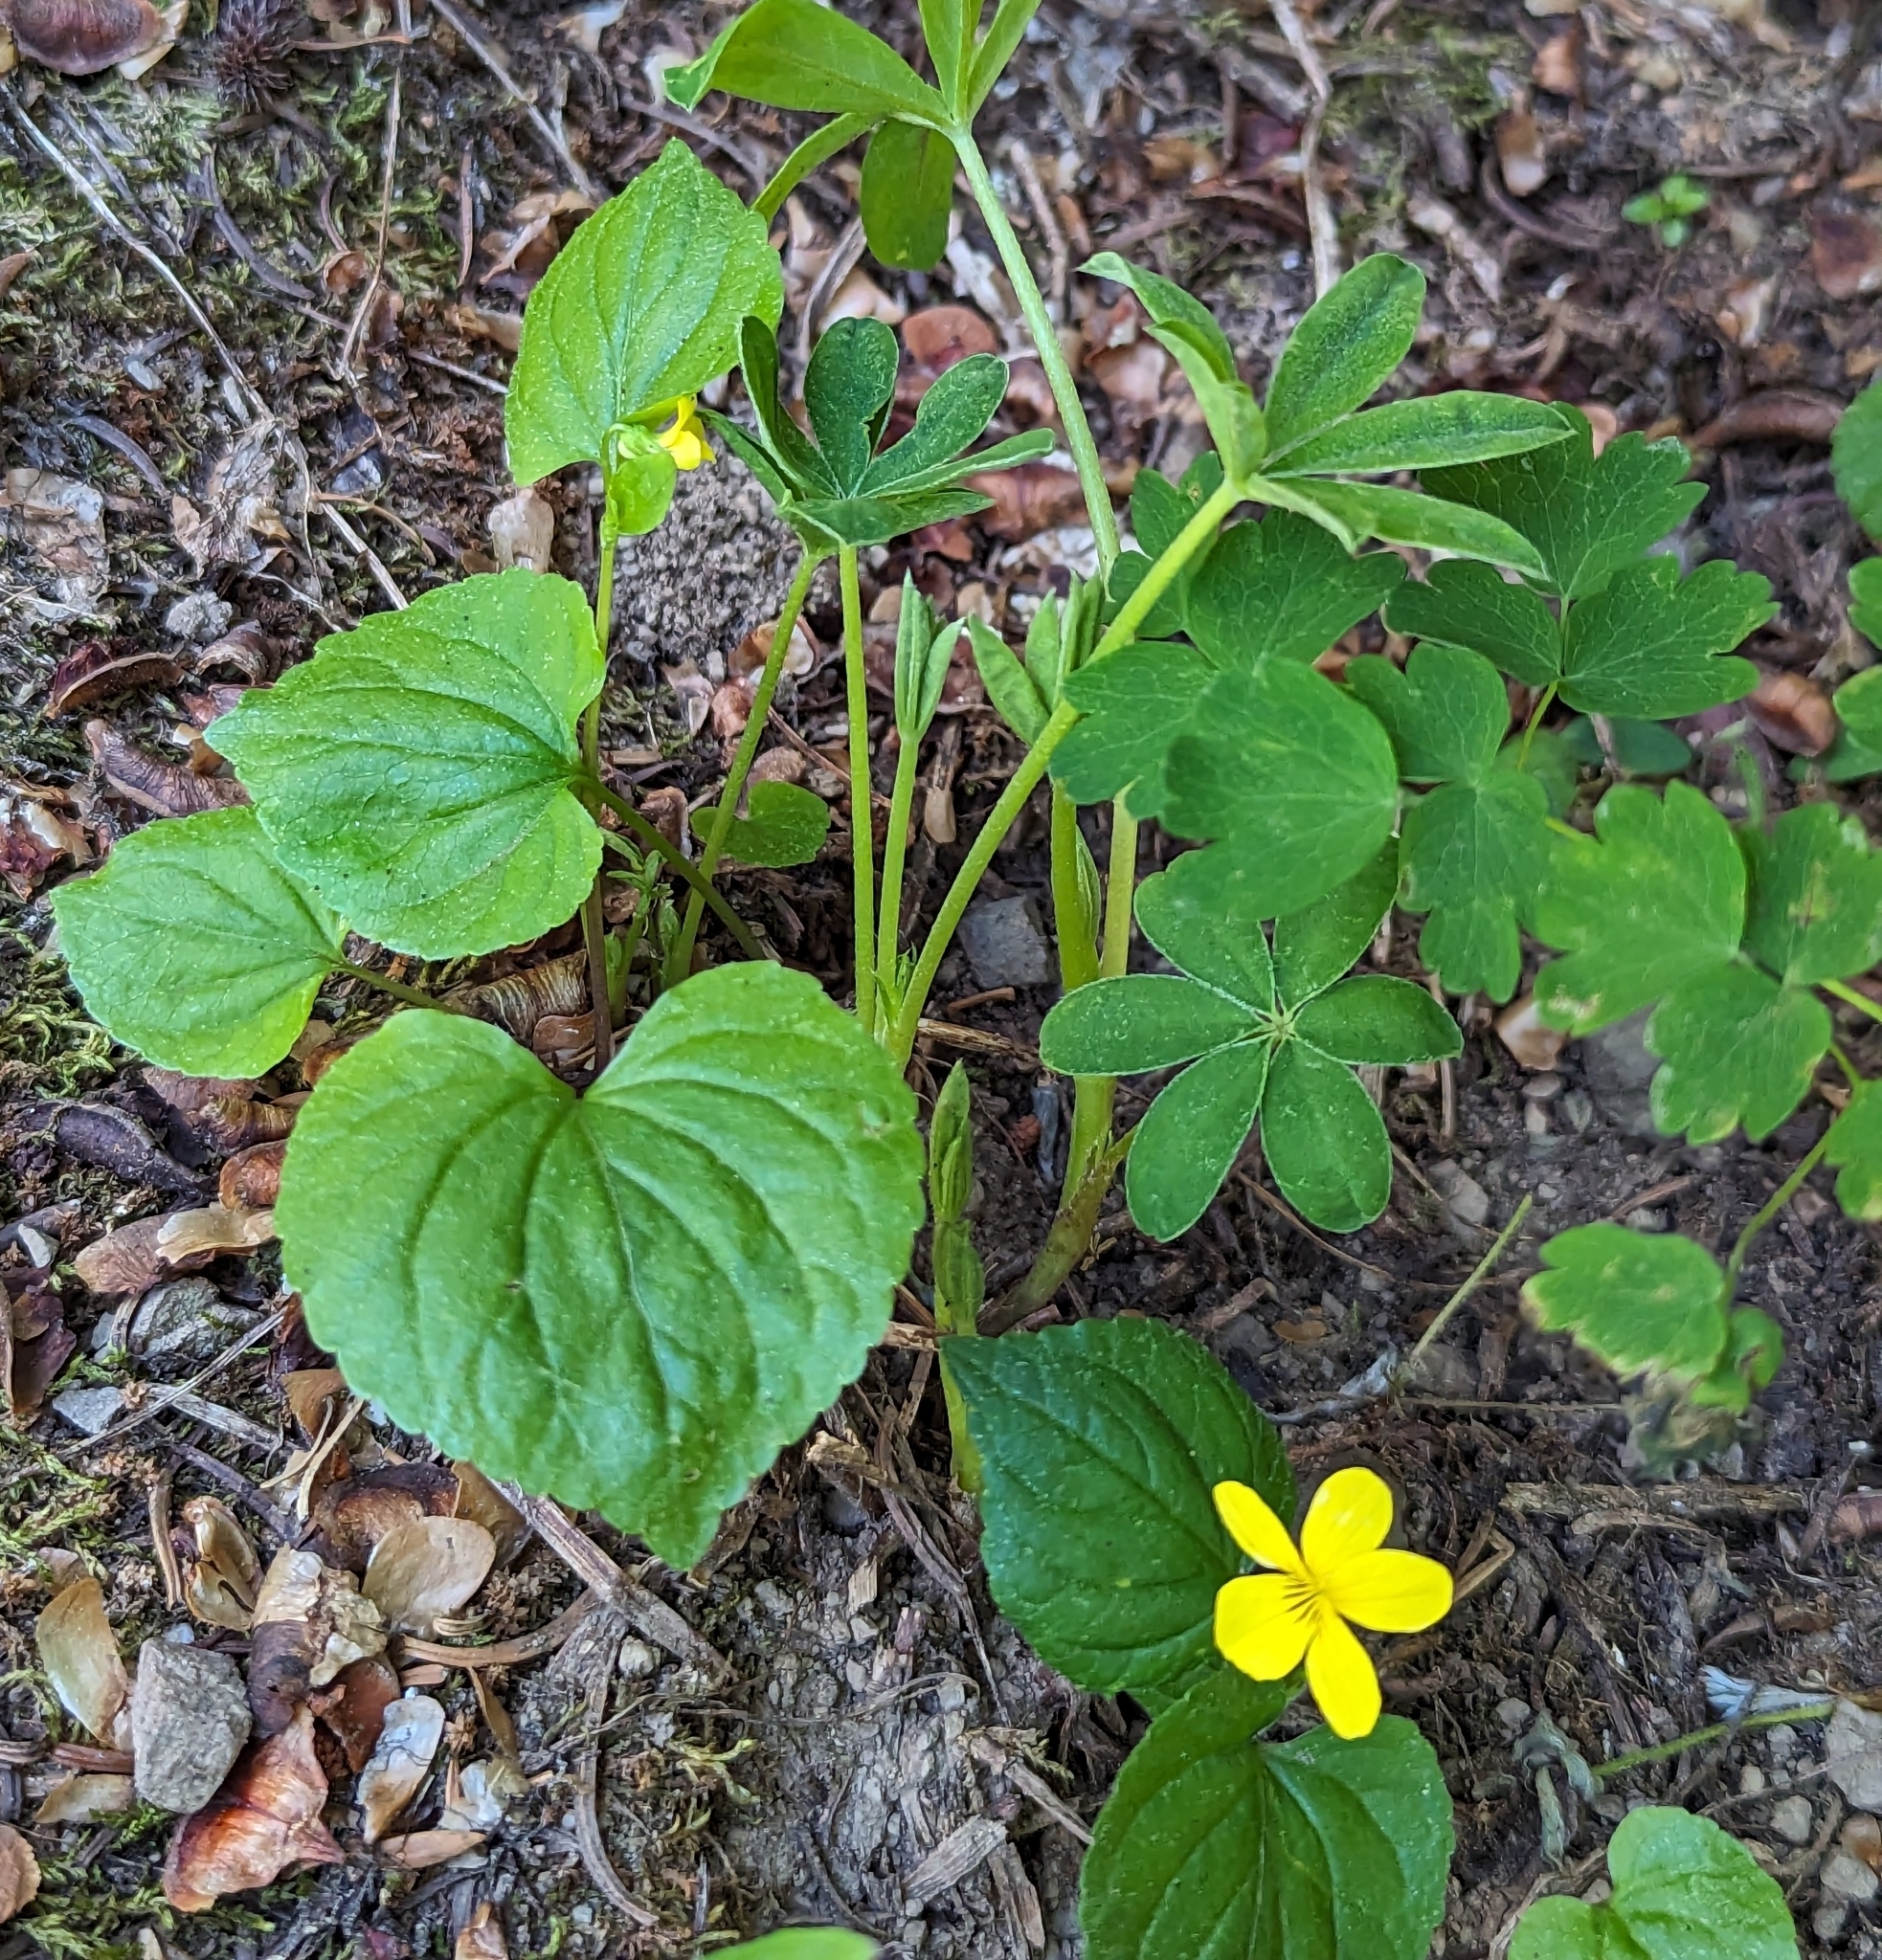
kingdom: Plantae
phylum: Tracheophyta
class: Magnoliopsida
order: Malpighiales
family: Violaceae
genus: Viola
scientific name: Viola glabella
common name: Stream violet
